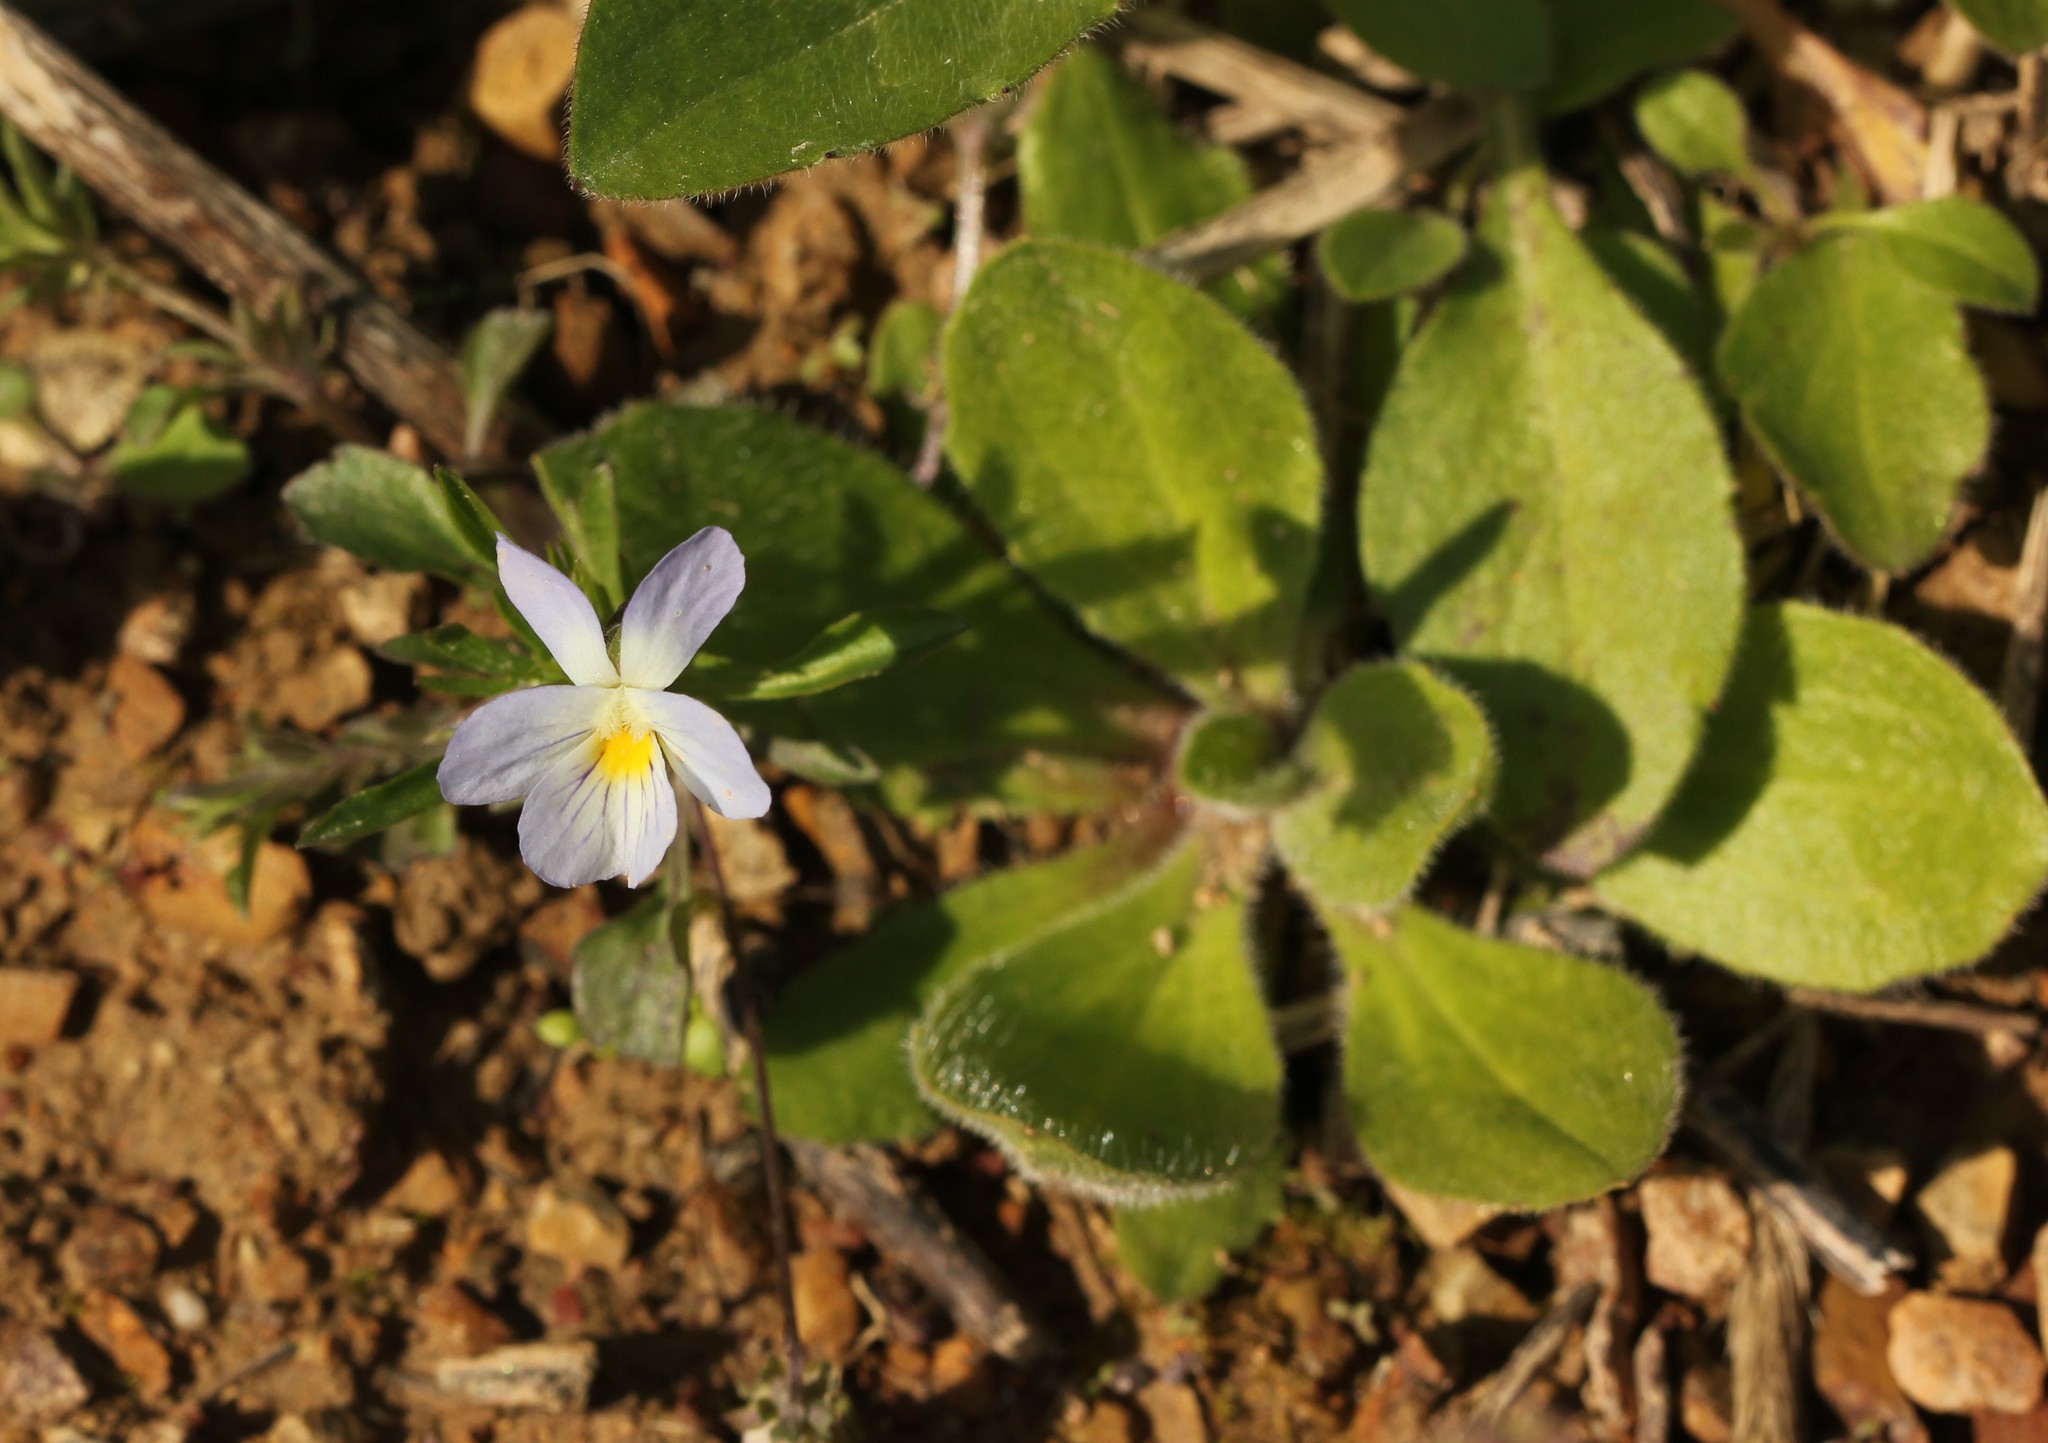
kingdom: Plantae
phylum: Tracheophyta
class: Magnoliopsida
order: Malpighiales
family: Violaceae
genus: Viola
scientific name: Viola rafinesquei
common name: American field pansy
